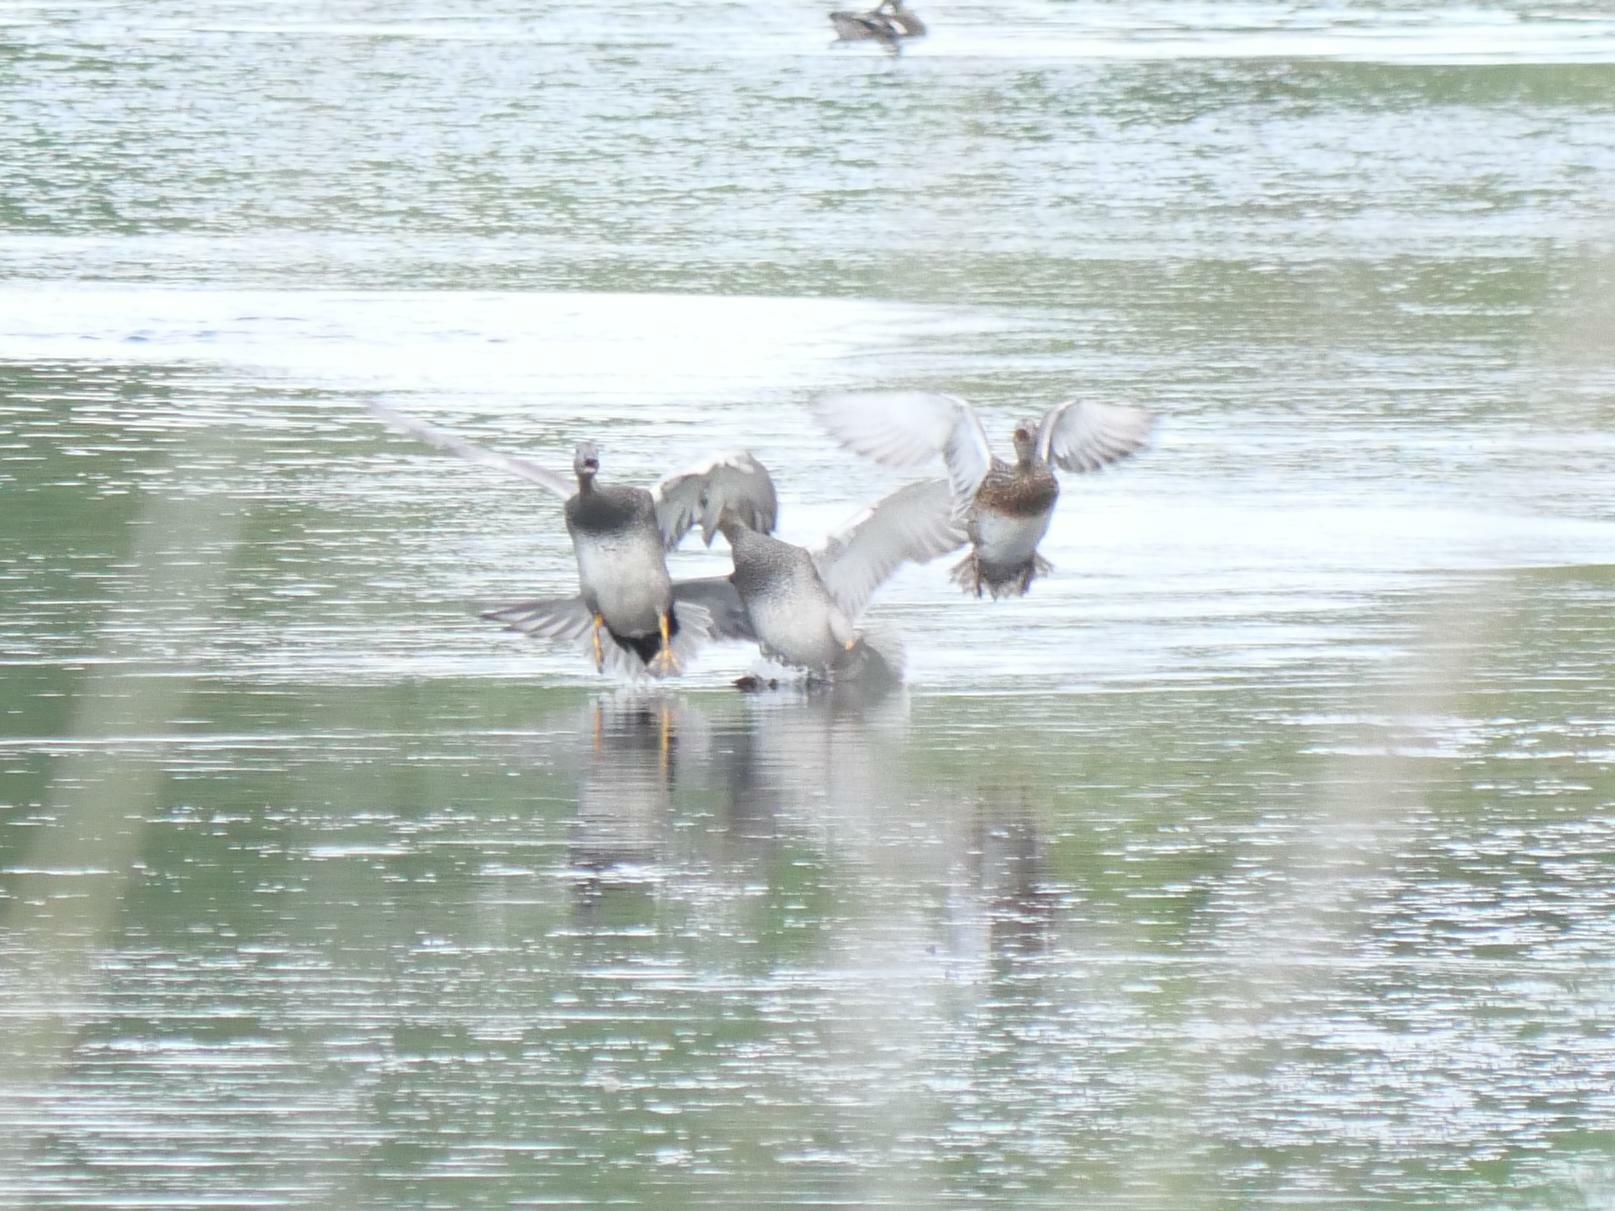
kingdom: Animalia
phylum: Chordata
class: Aves
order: Anseriformes
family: Anatidae
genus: Mareca
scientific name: Mareca strepera
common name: Gadwall
